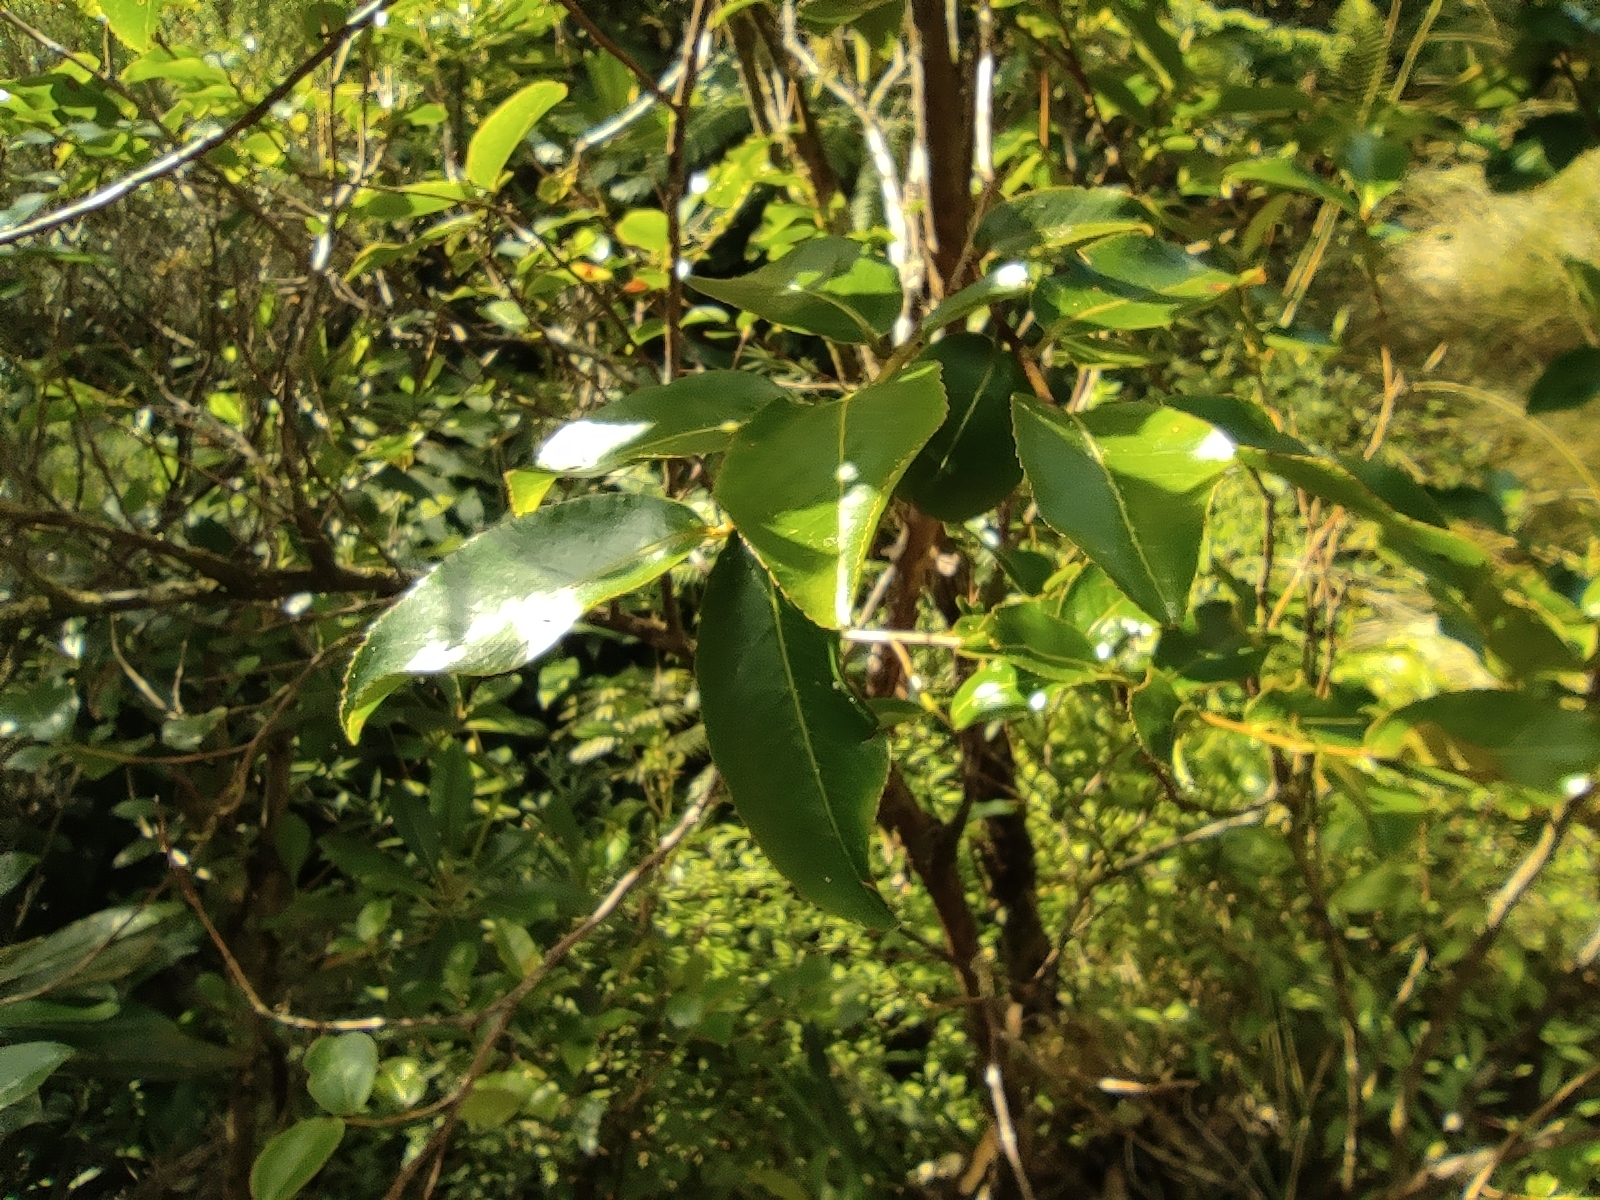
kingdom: Plantae
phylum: Tracheophyta
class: Magnoliopsida
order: Crossosomatales
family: Aphloiaceae
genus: Aphloia
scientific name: Aphloia theiformis
